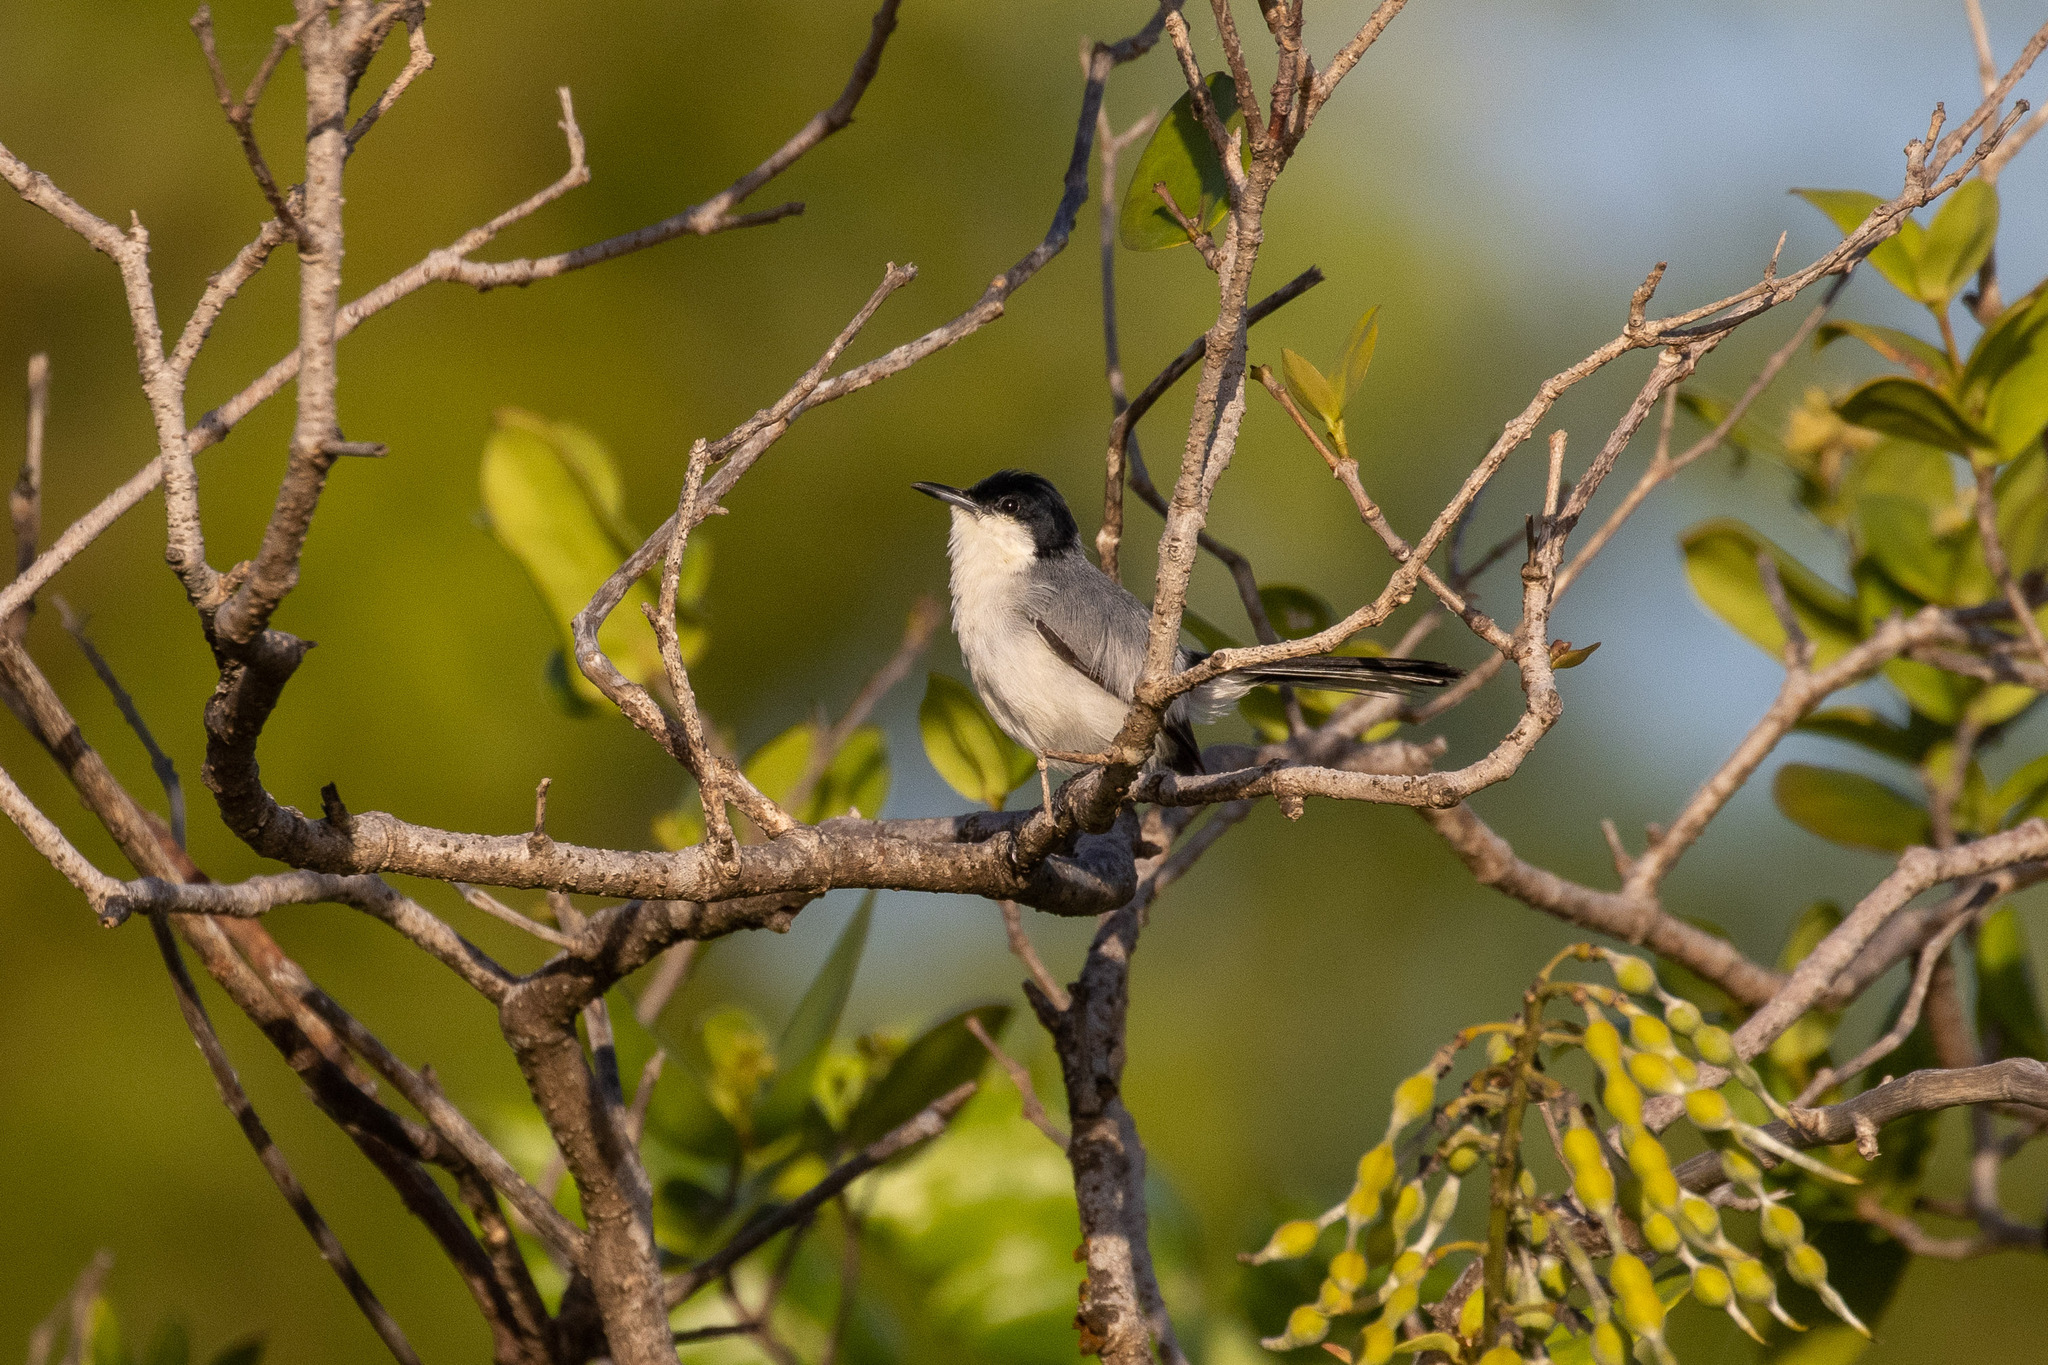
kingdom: Animalia
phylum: Chordata
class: Aves
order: Passeriformes
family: Polioptilidae
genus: Polioptila
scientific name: Polioptila plumbea
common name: Tropical gnatcatcher
